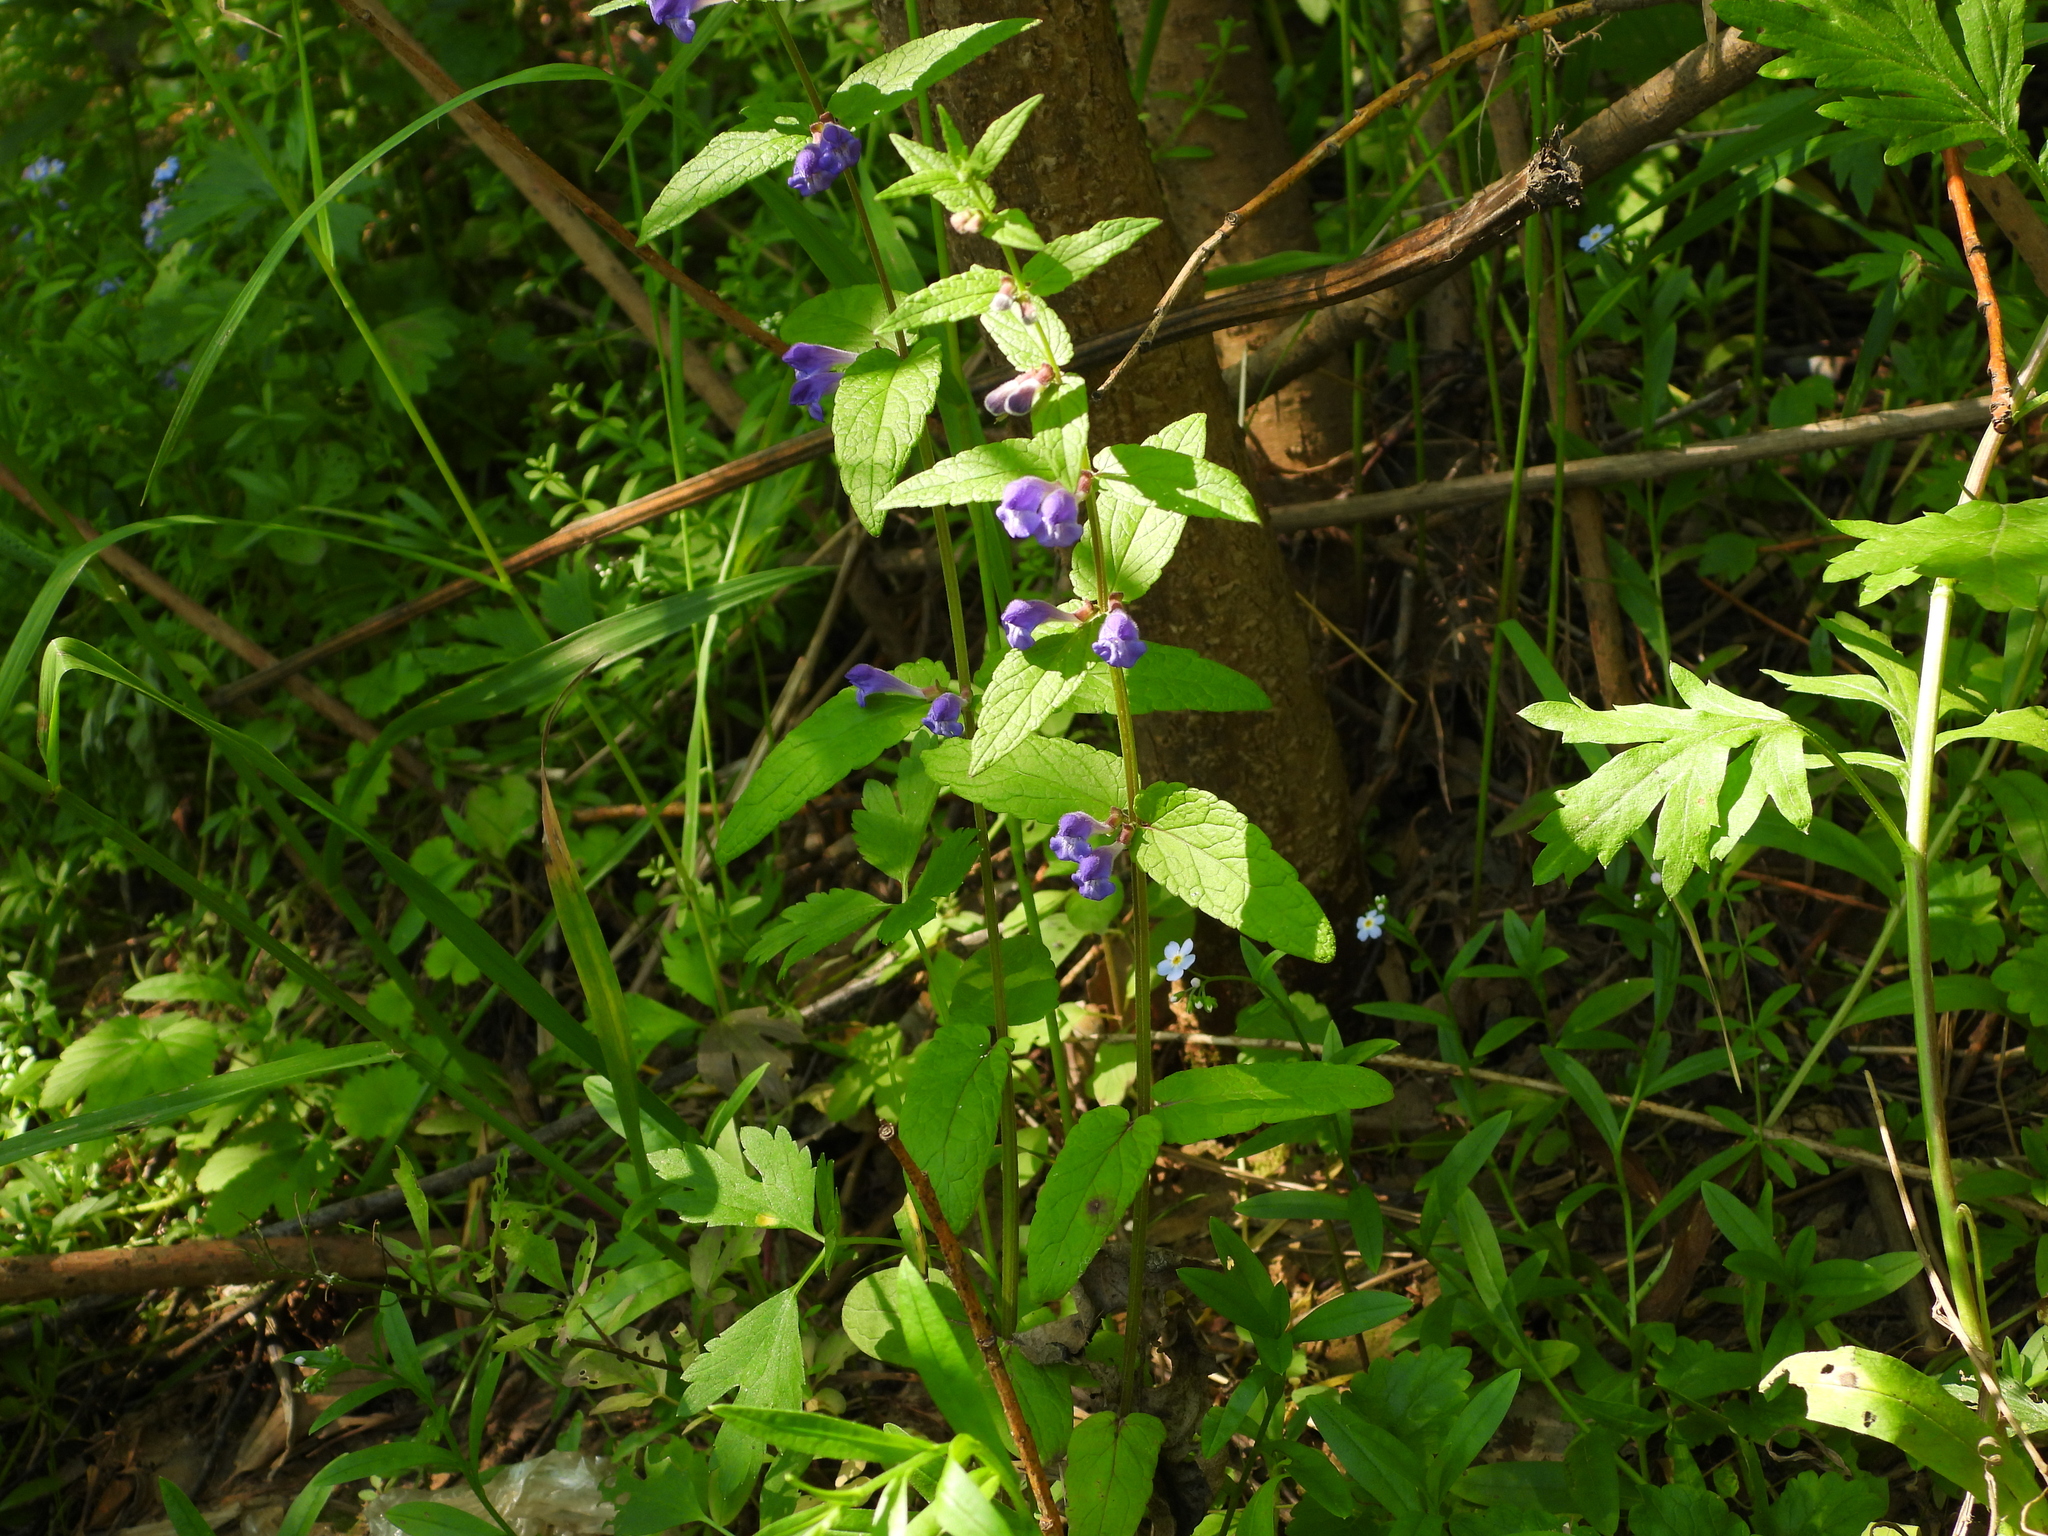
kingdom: Plantae
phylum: Tracheophyta
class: Magnoliopsida
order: Lamiales
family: Lamiaceae
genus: Scutellaria
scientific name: Scutellaria galericulata
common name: Skullcap
